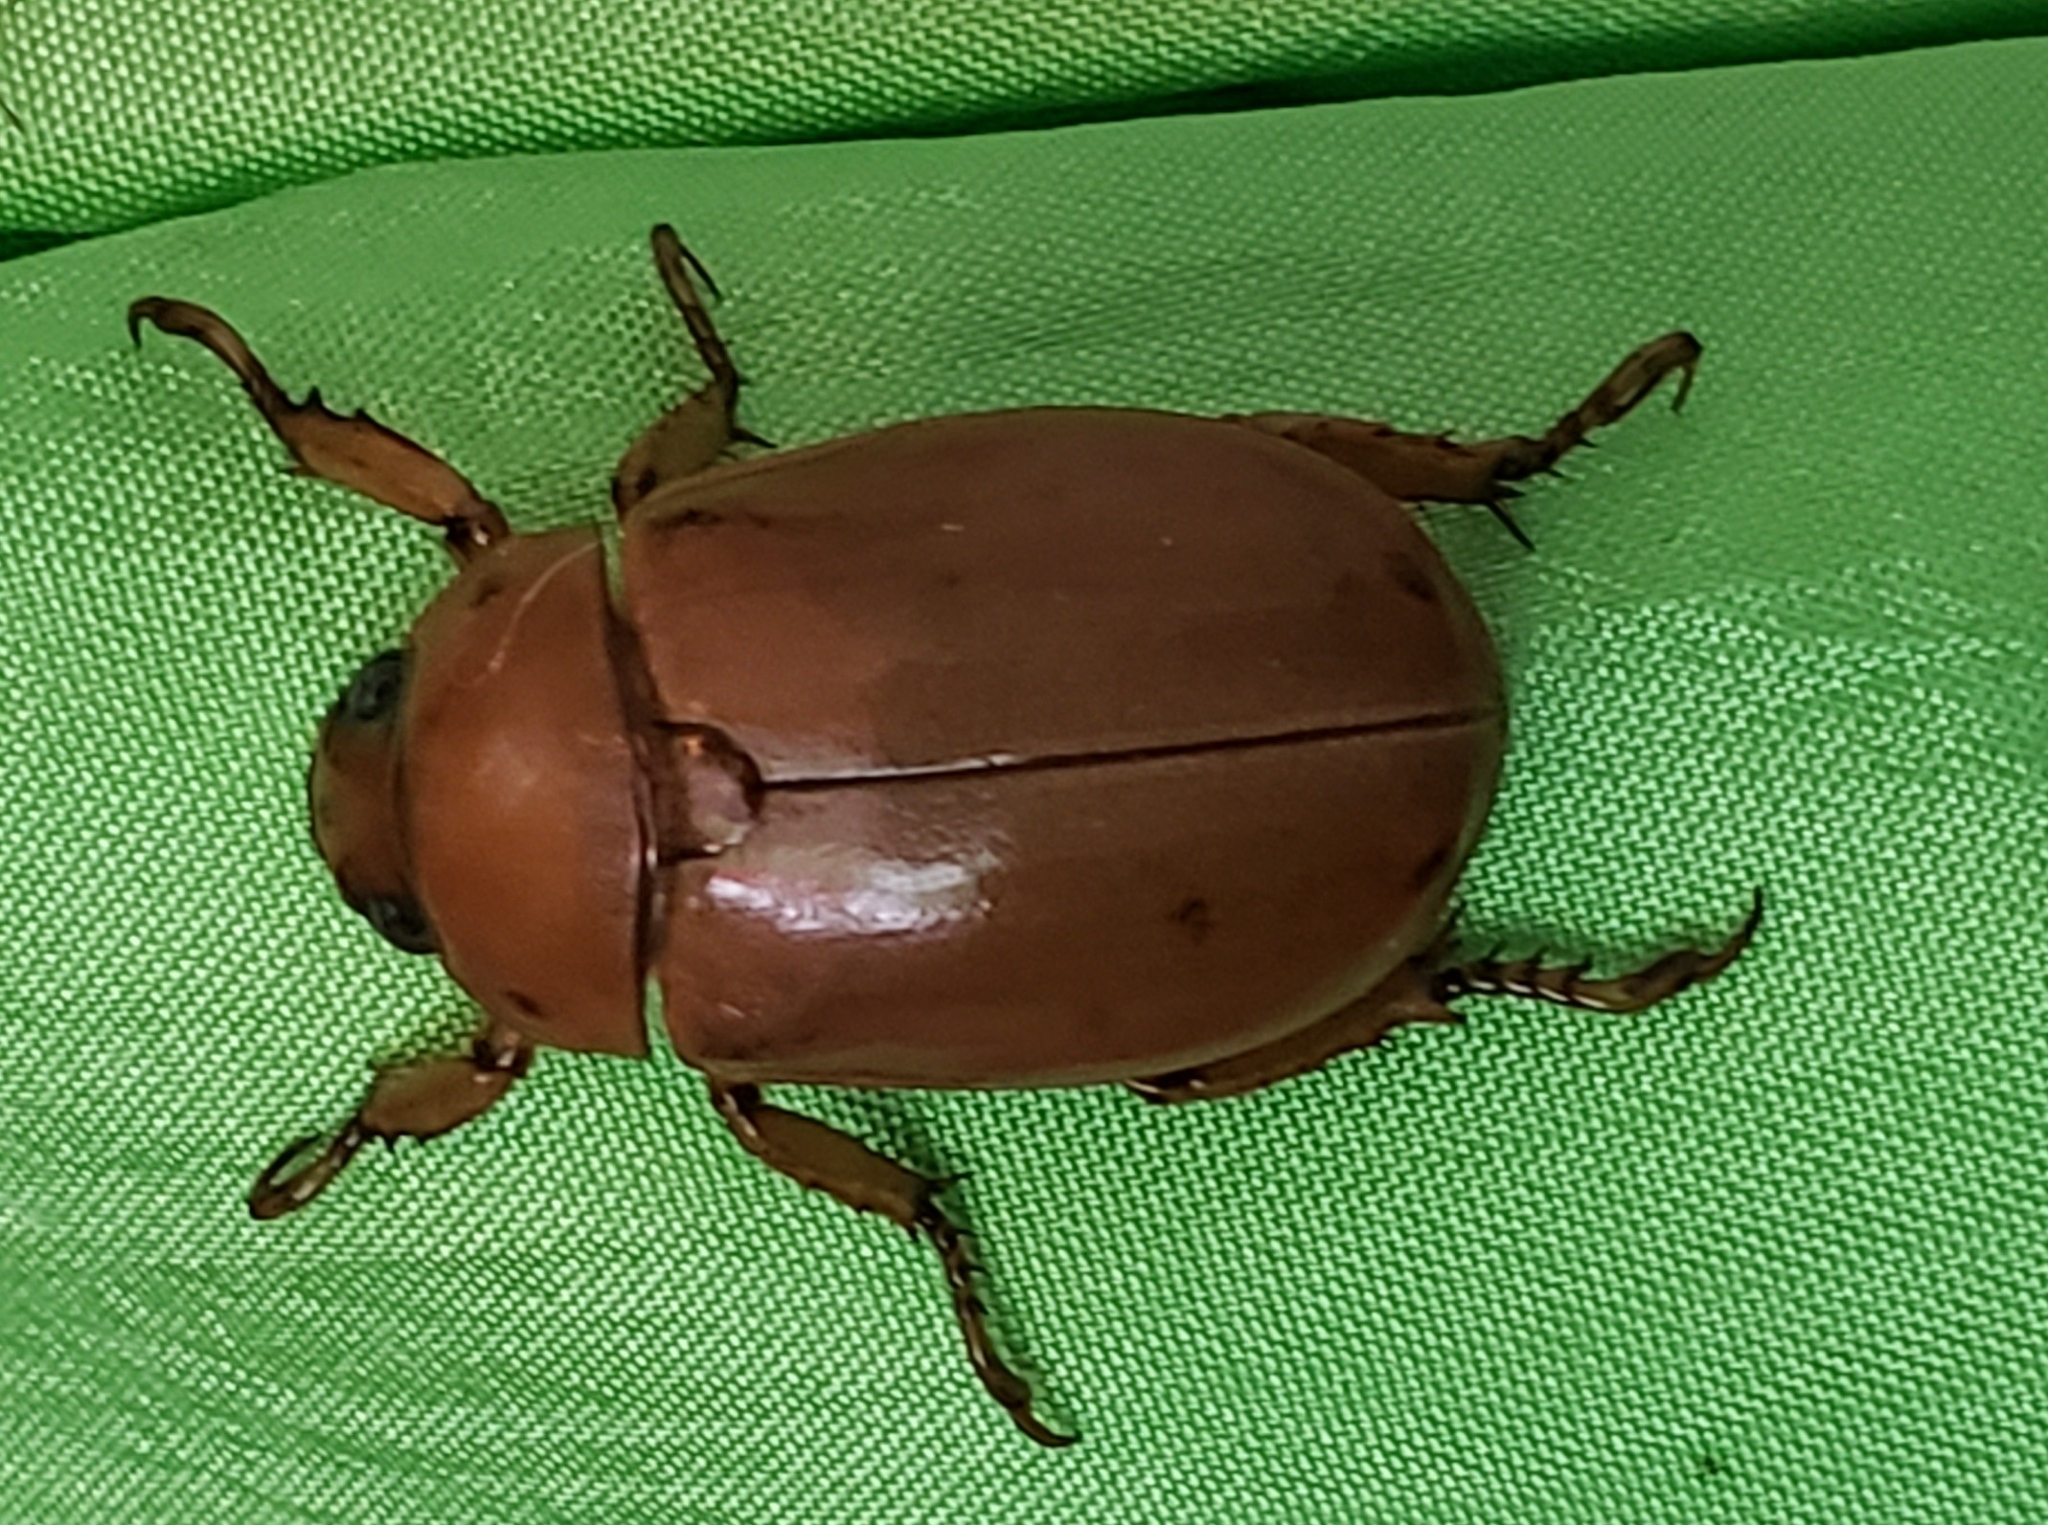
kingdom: Animalia
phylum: Arthropoda
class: Insecta
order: Coleoptera
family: Scarabaeidae
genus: Pelidnota
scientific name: Pelidnota punctata
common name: Grapevine beetle
